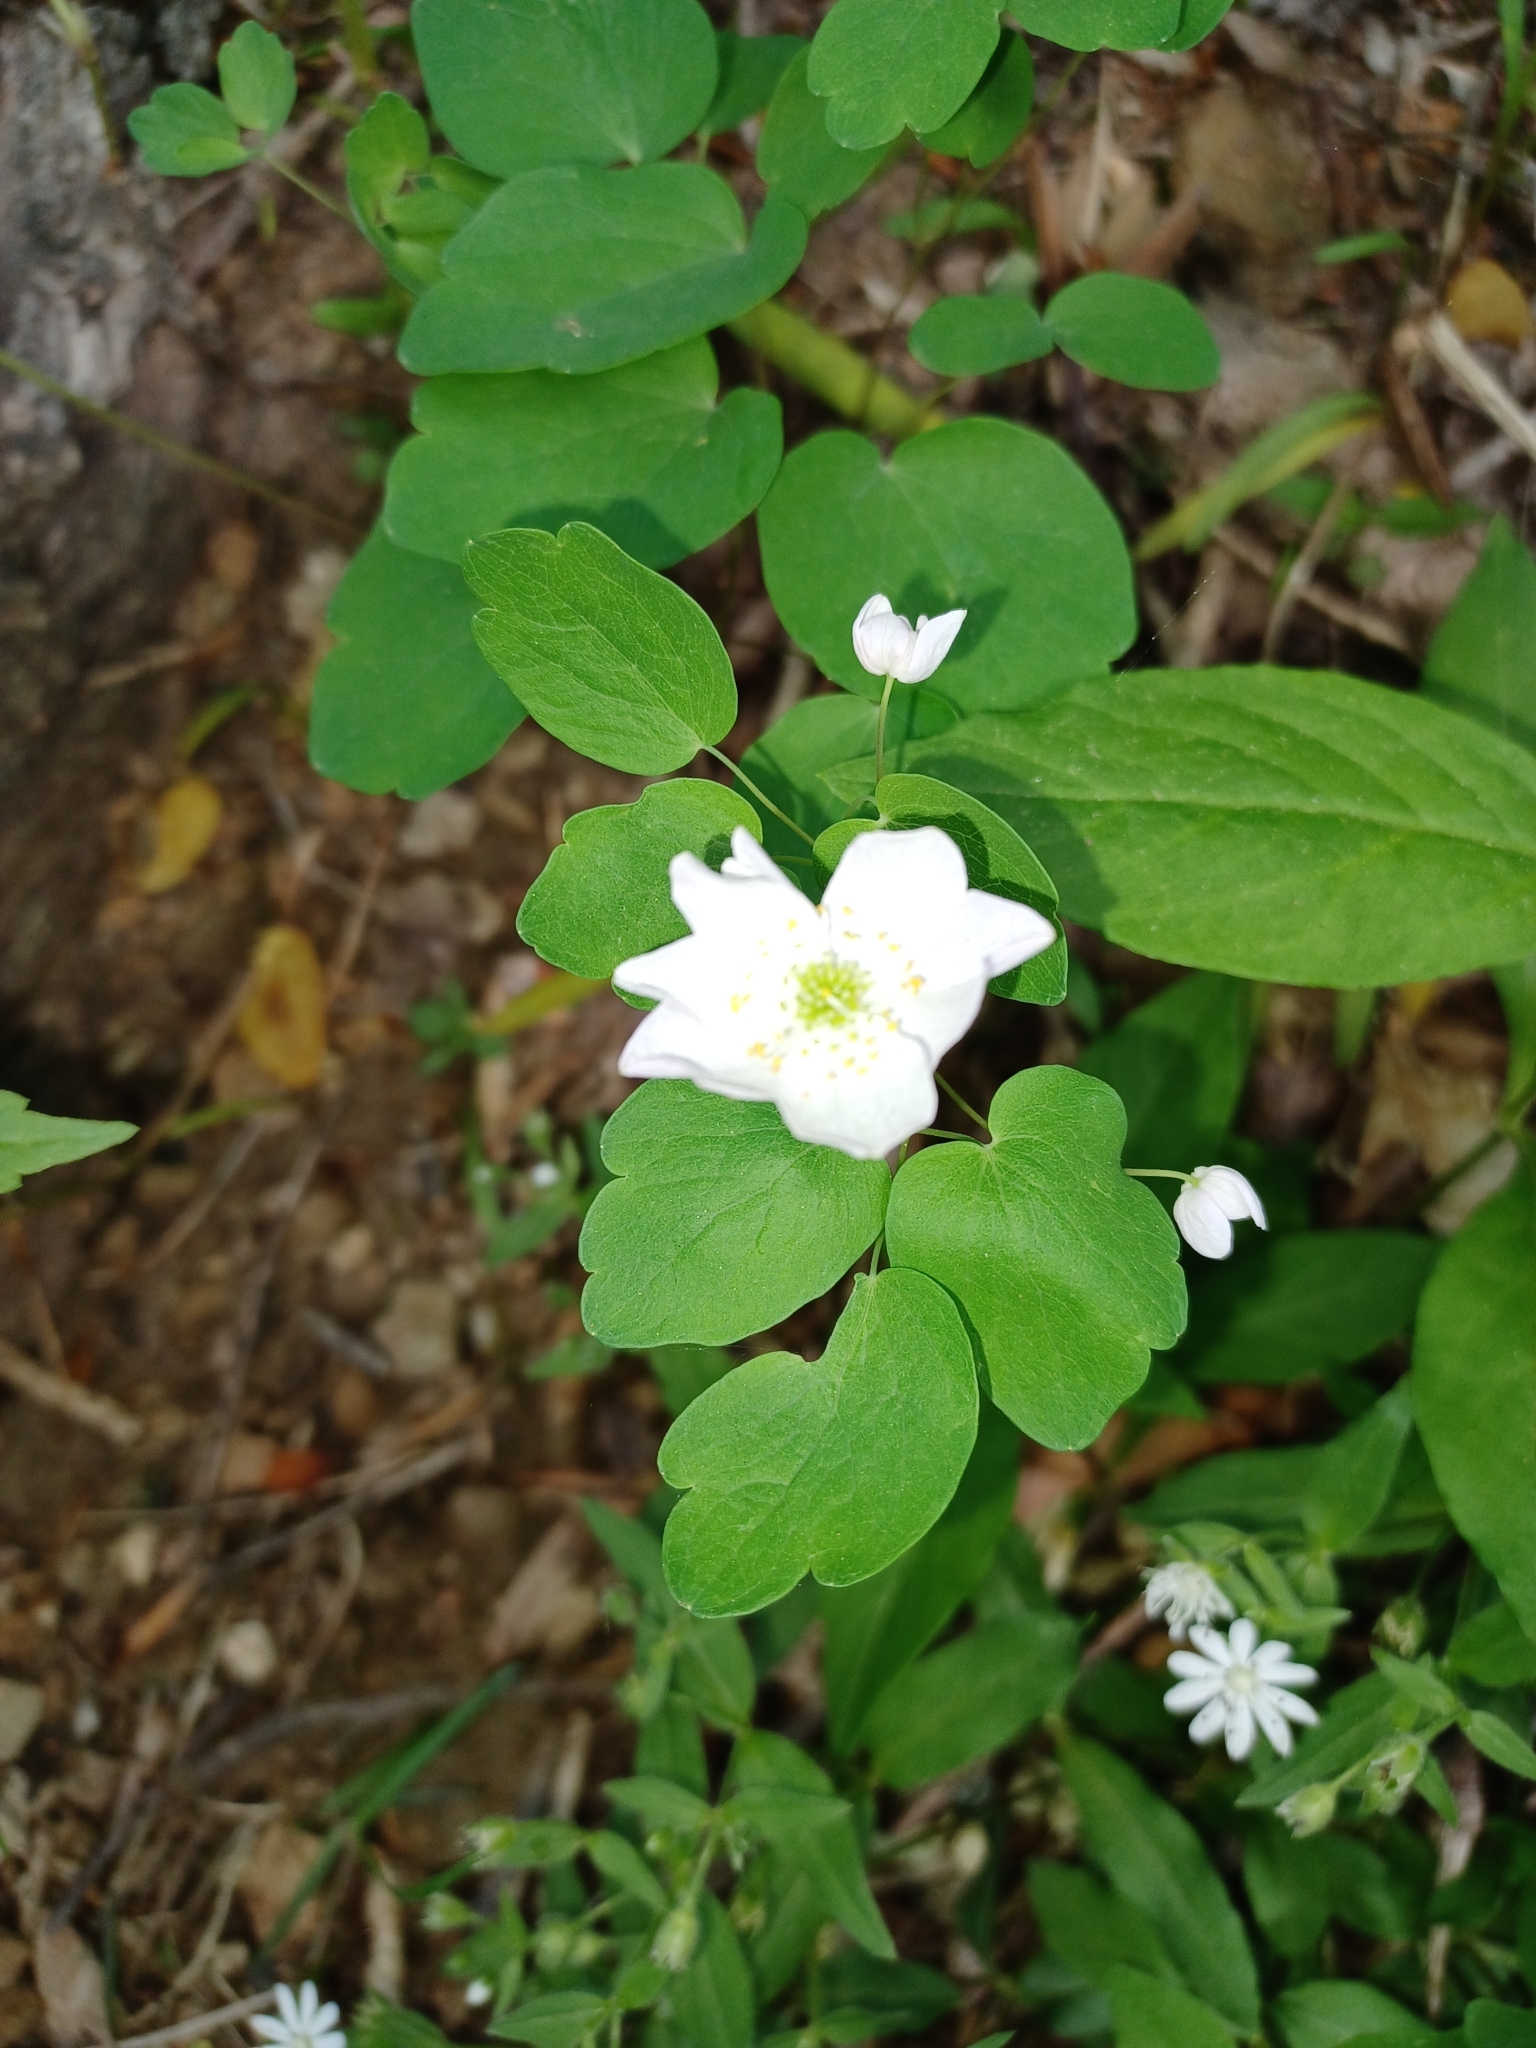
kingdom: Plantae
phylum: Tracheophyta
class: Magnoliopsida
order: Ranunculales
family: Ranunculaceae
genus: Thalictrum
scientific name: Thalictrum thalictroides
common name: Rue-anemone
